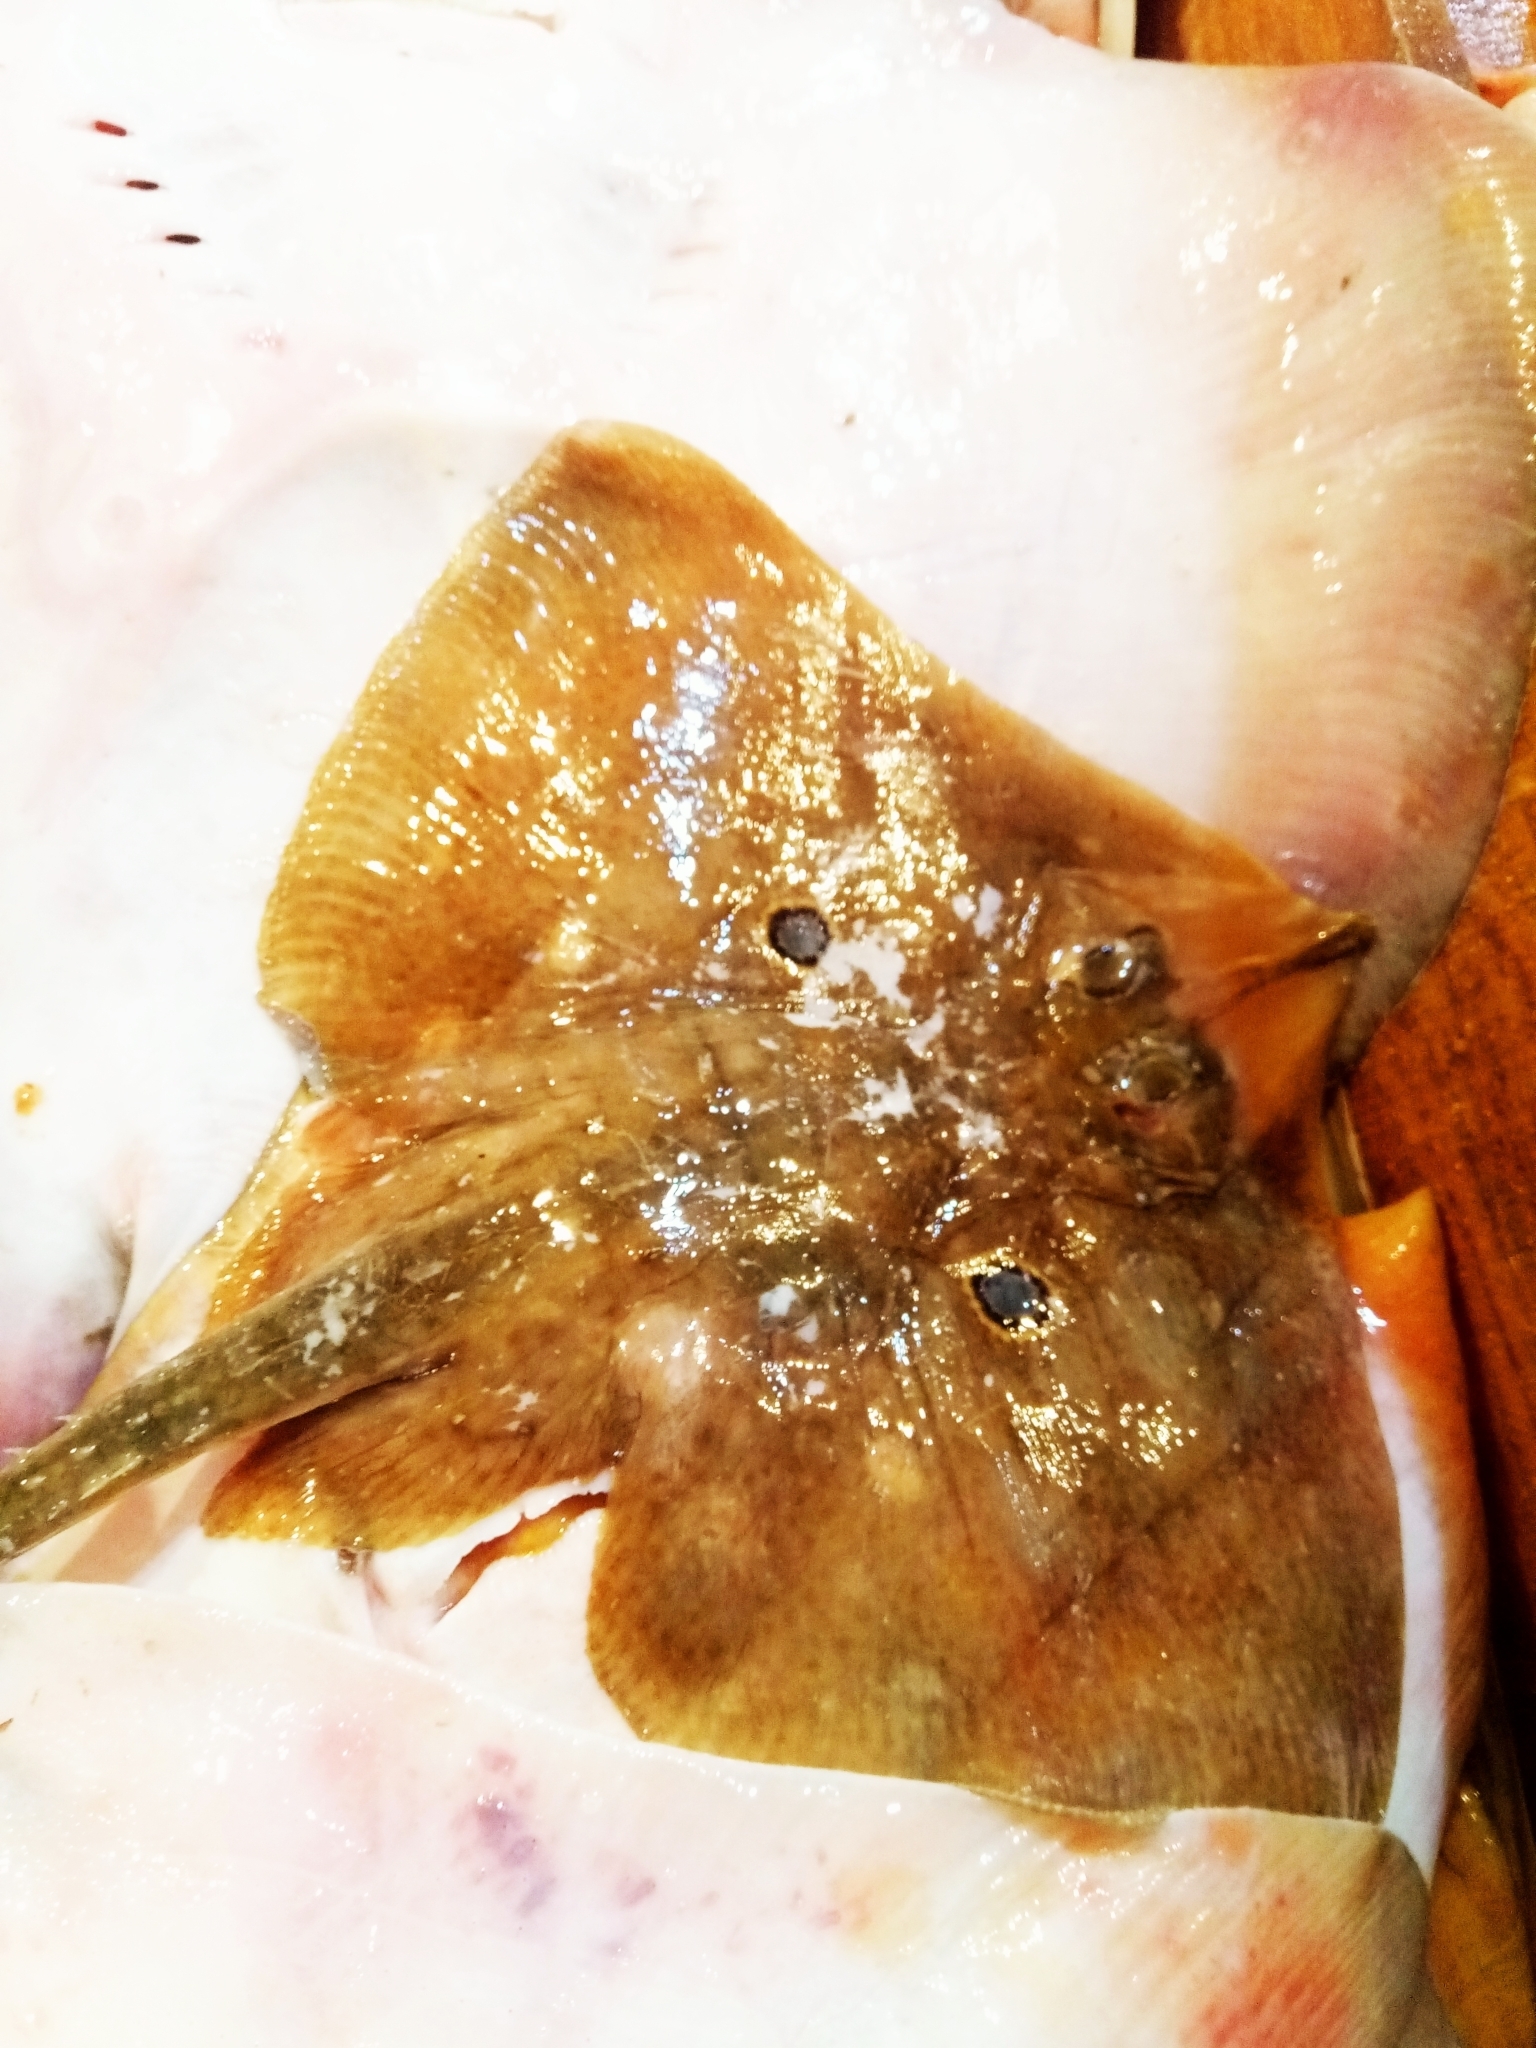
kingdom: Animalia
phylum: Chordata
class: Elasmobranchii
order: Rajiformes
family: Rajidae
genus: Raja
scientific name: Raja miraletus
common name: Brown ray
